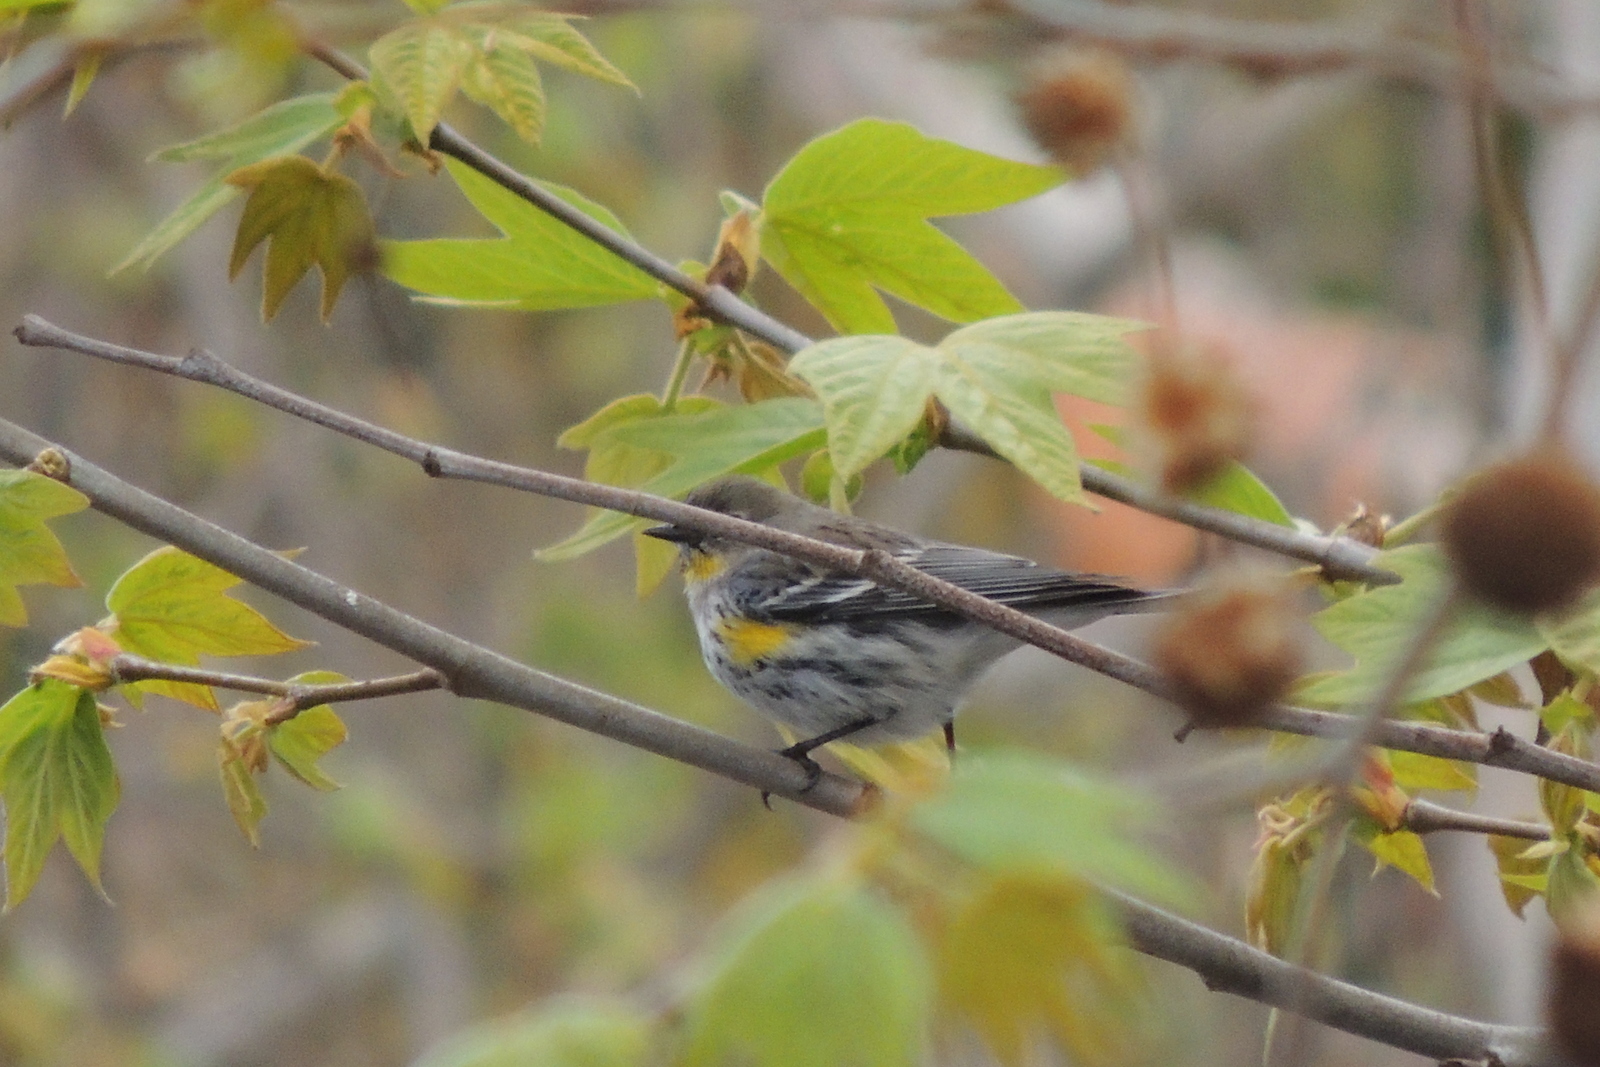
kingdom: Animalia
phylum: Chordata
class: Aves
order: Passeriformes
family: Parulidae
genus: Setophaga
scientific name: Setophaga coronata
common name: Myrtle warbler
